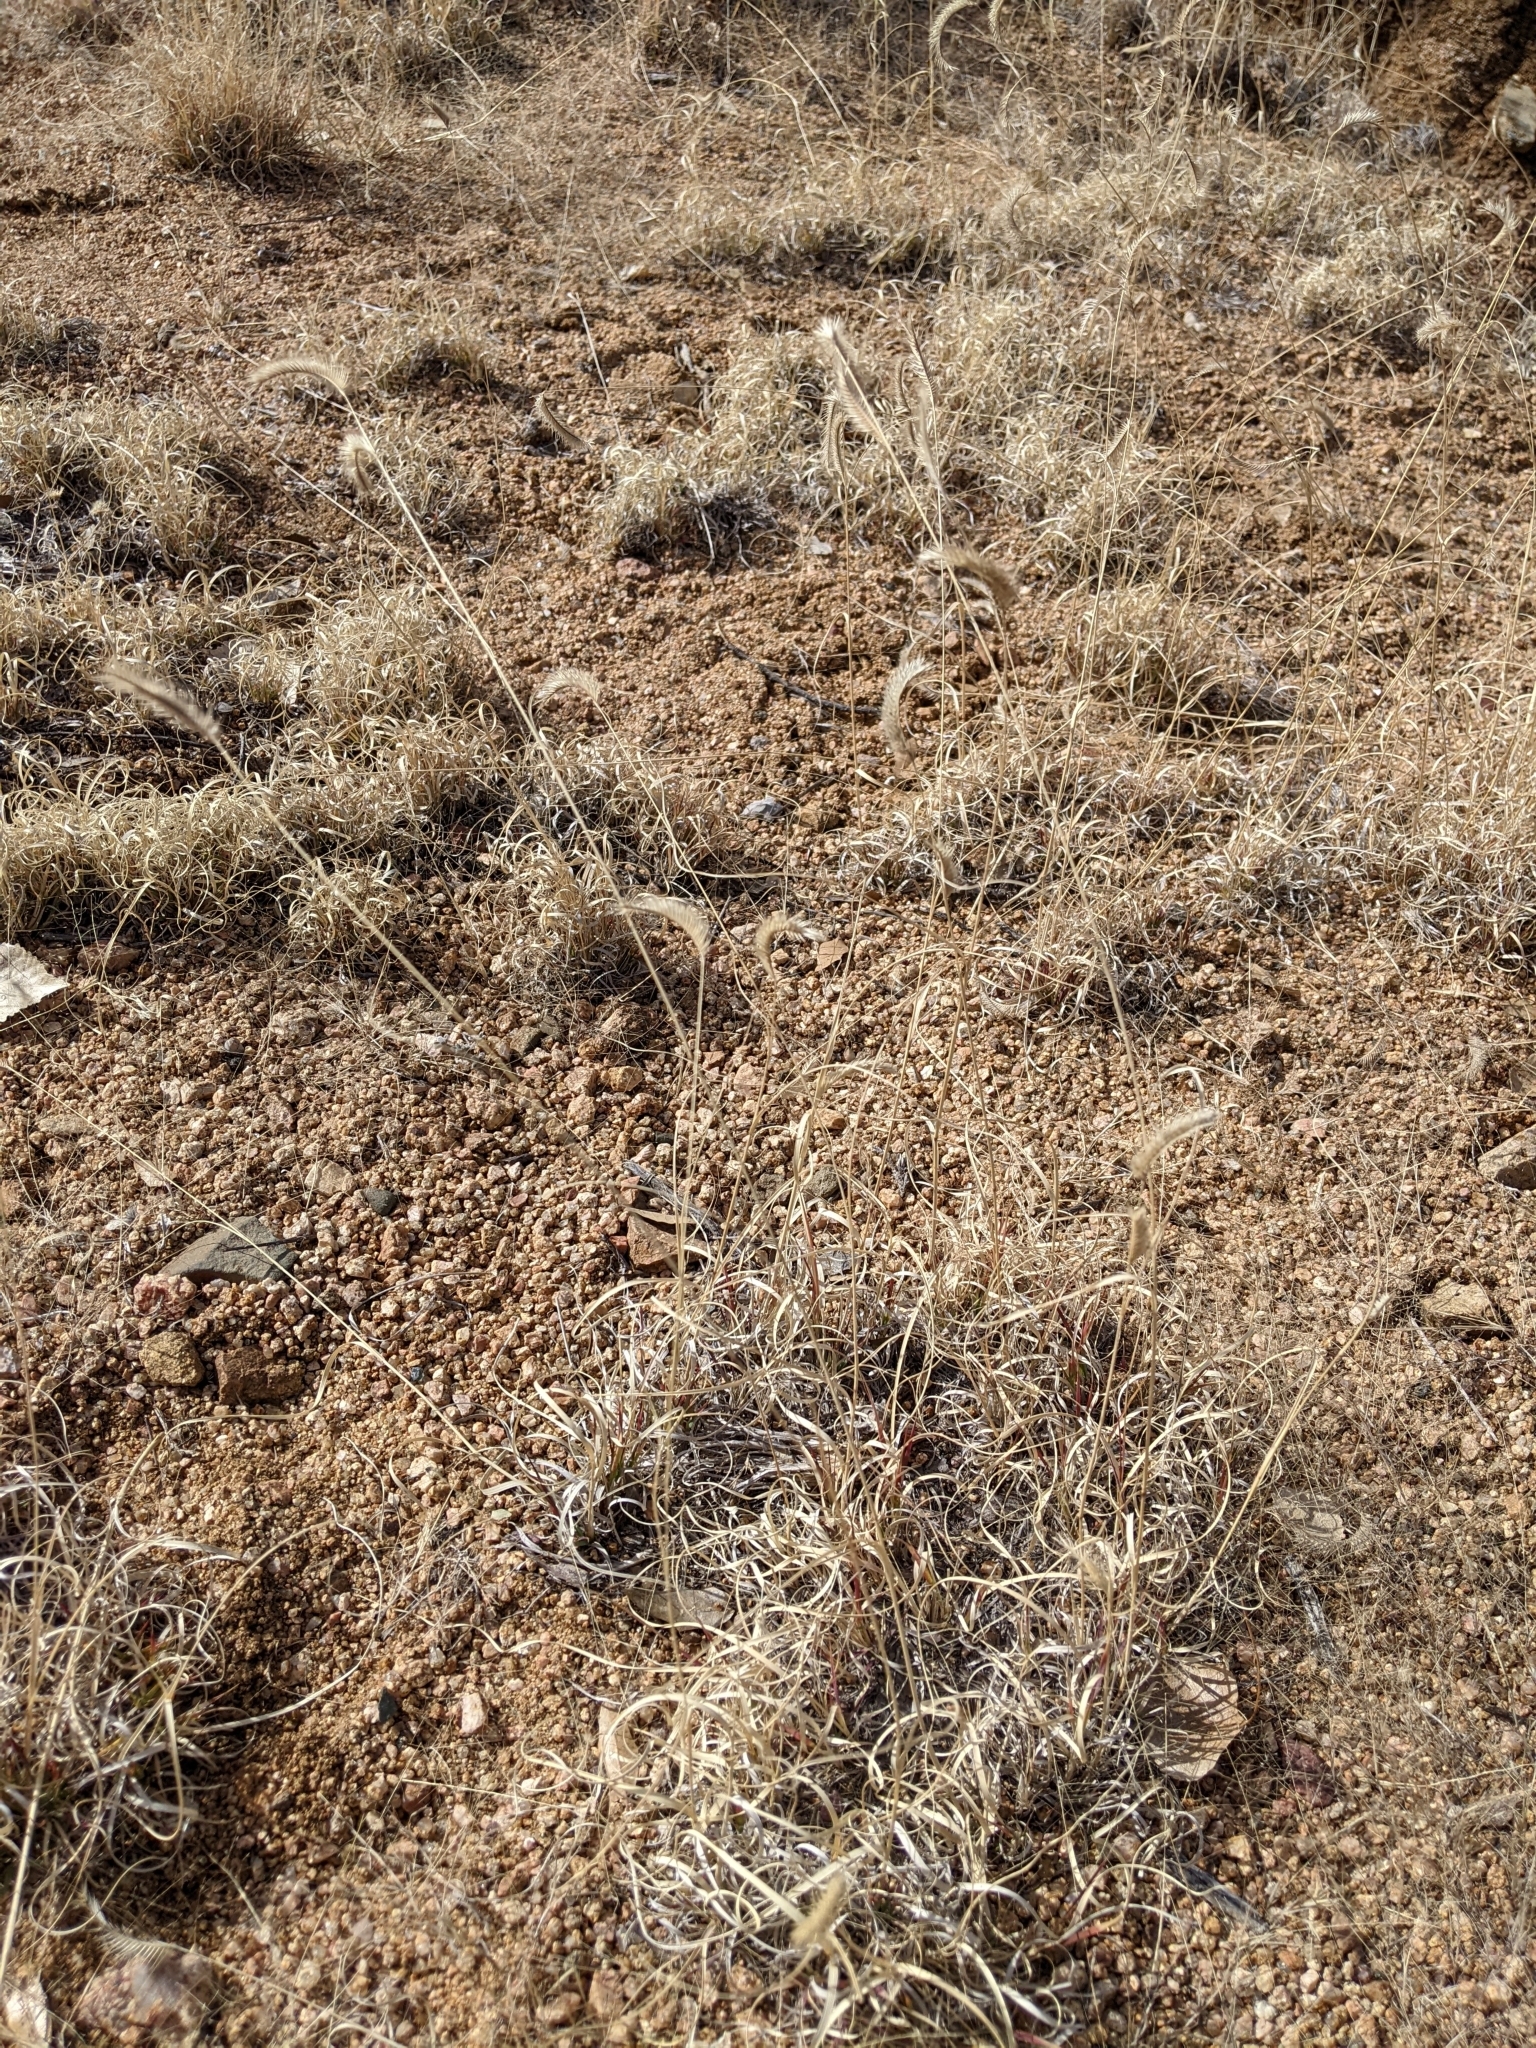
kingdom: Plantae
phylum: Tracheophyta
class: Liliopsida
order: Poales
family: Poaceae
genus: Bouteloua
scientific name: Bouteloua gracilis
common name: Blue grama
